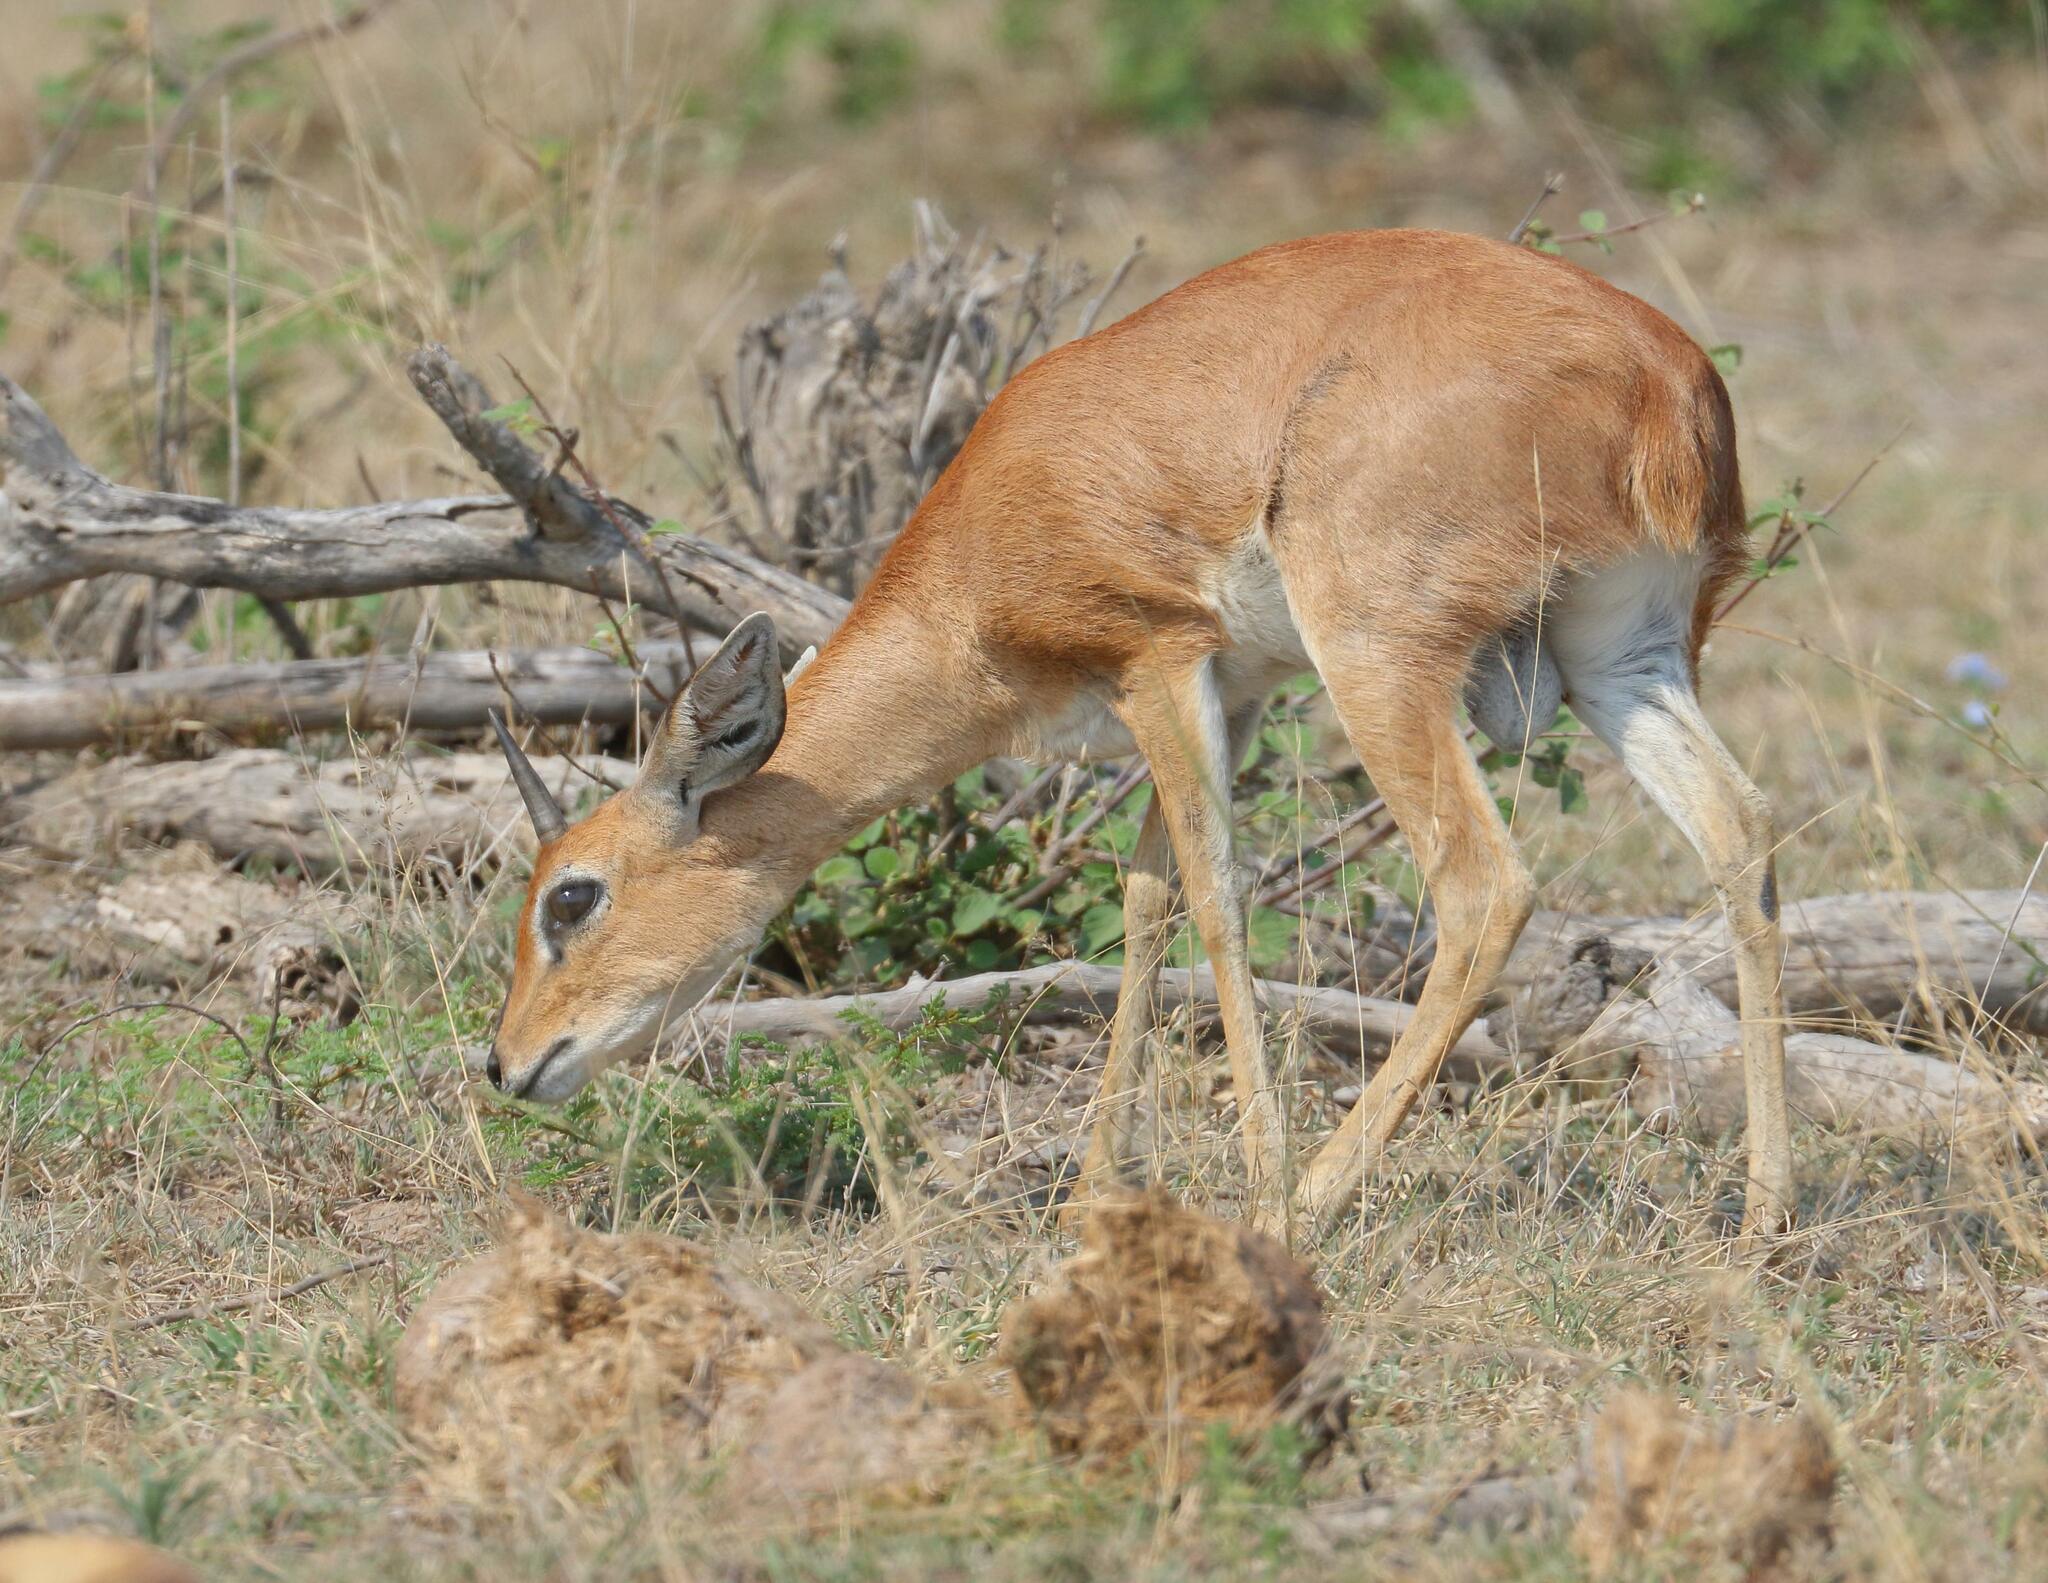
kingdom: Animalia
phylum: Chordata
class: Mammalia
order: Artiodactyla
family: Bovidae
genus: Raphicerus
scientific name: Raphicerus campestris
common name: Steenbok
